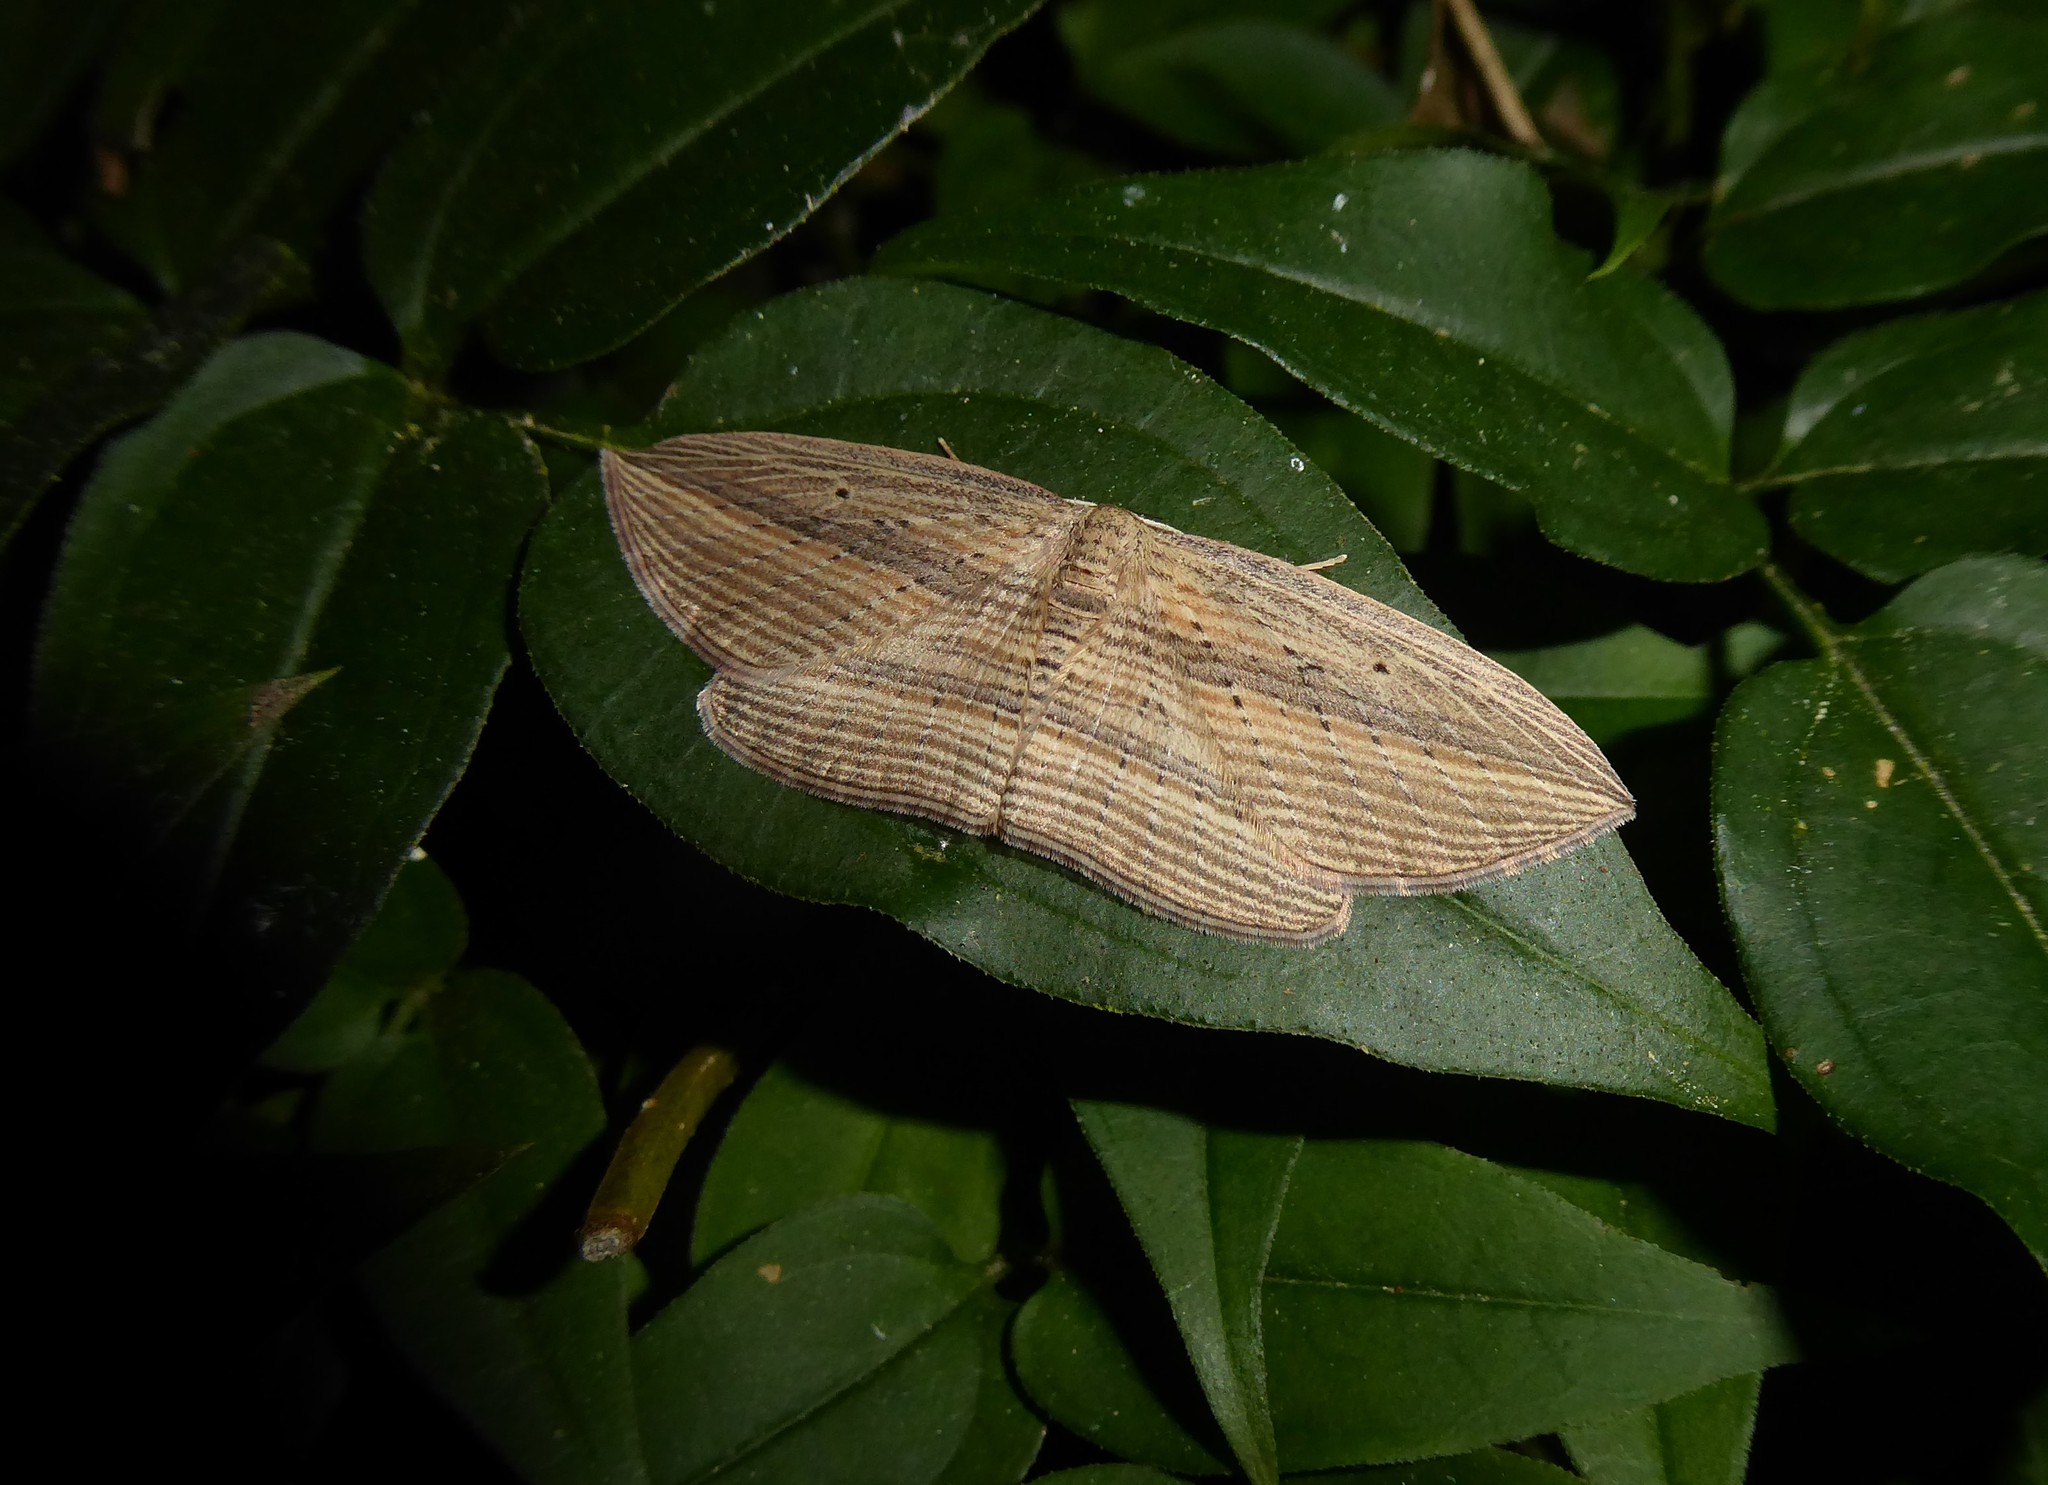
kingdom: Animalia
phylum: Arthropoda
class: Insecta
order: Lepidoptera
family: Geometridae
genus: Epiphryne
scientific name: Epiphryne verriculata
